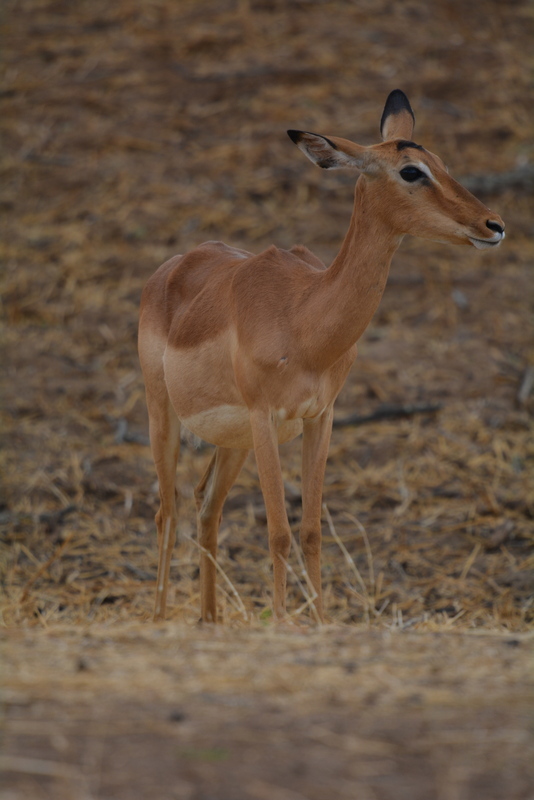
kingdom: Animalia
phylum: Chordata
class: Mammalia
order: Artiodactyla
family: Bovidae
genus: Aepyceros
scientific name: Aepyceros melampus
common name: Impala
